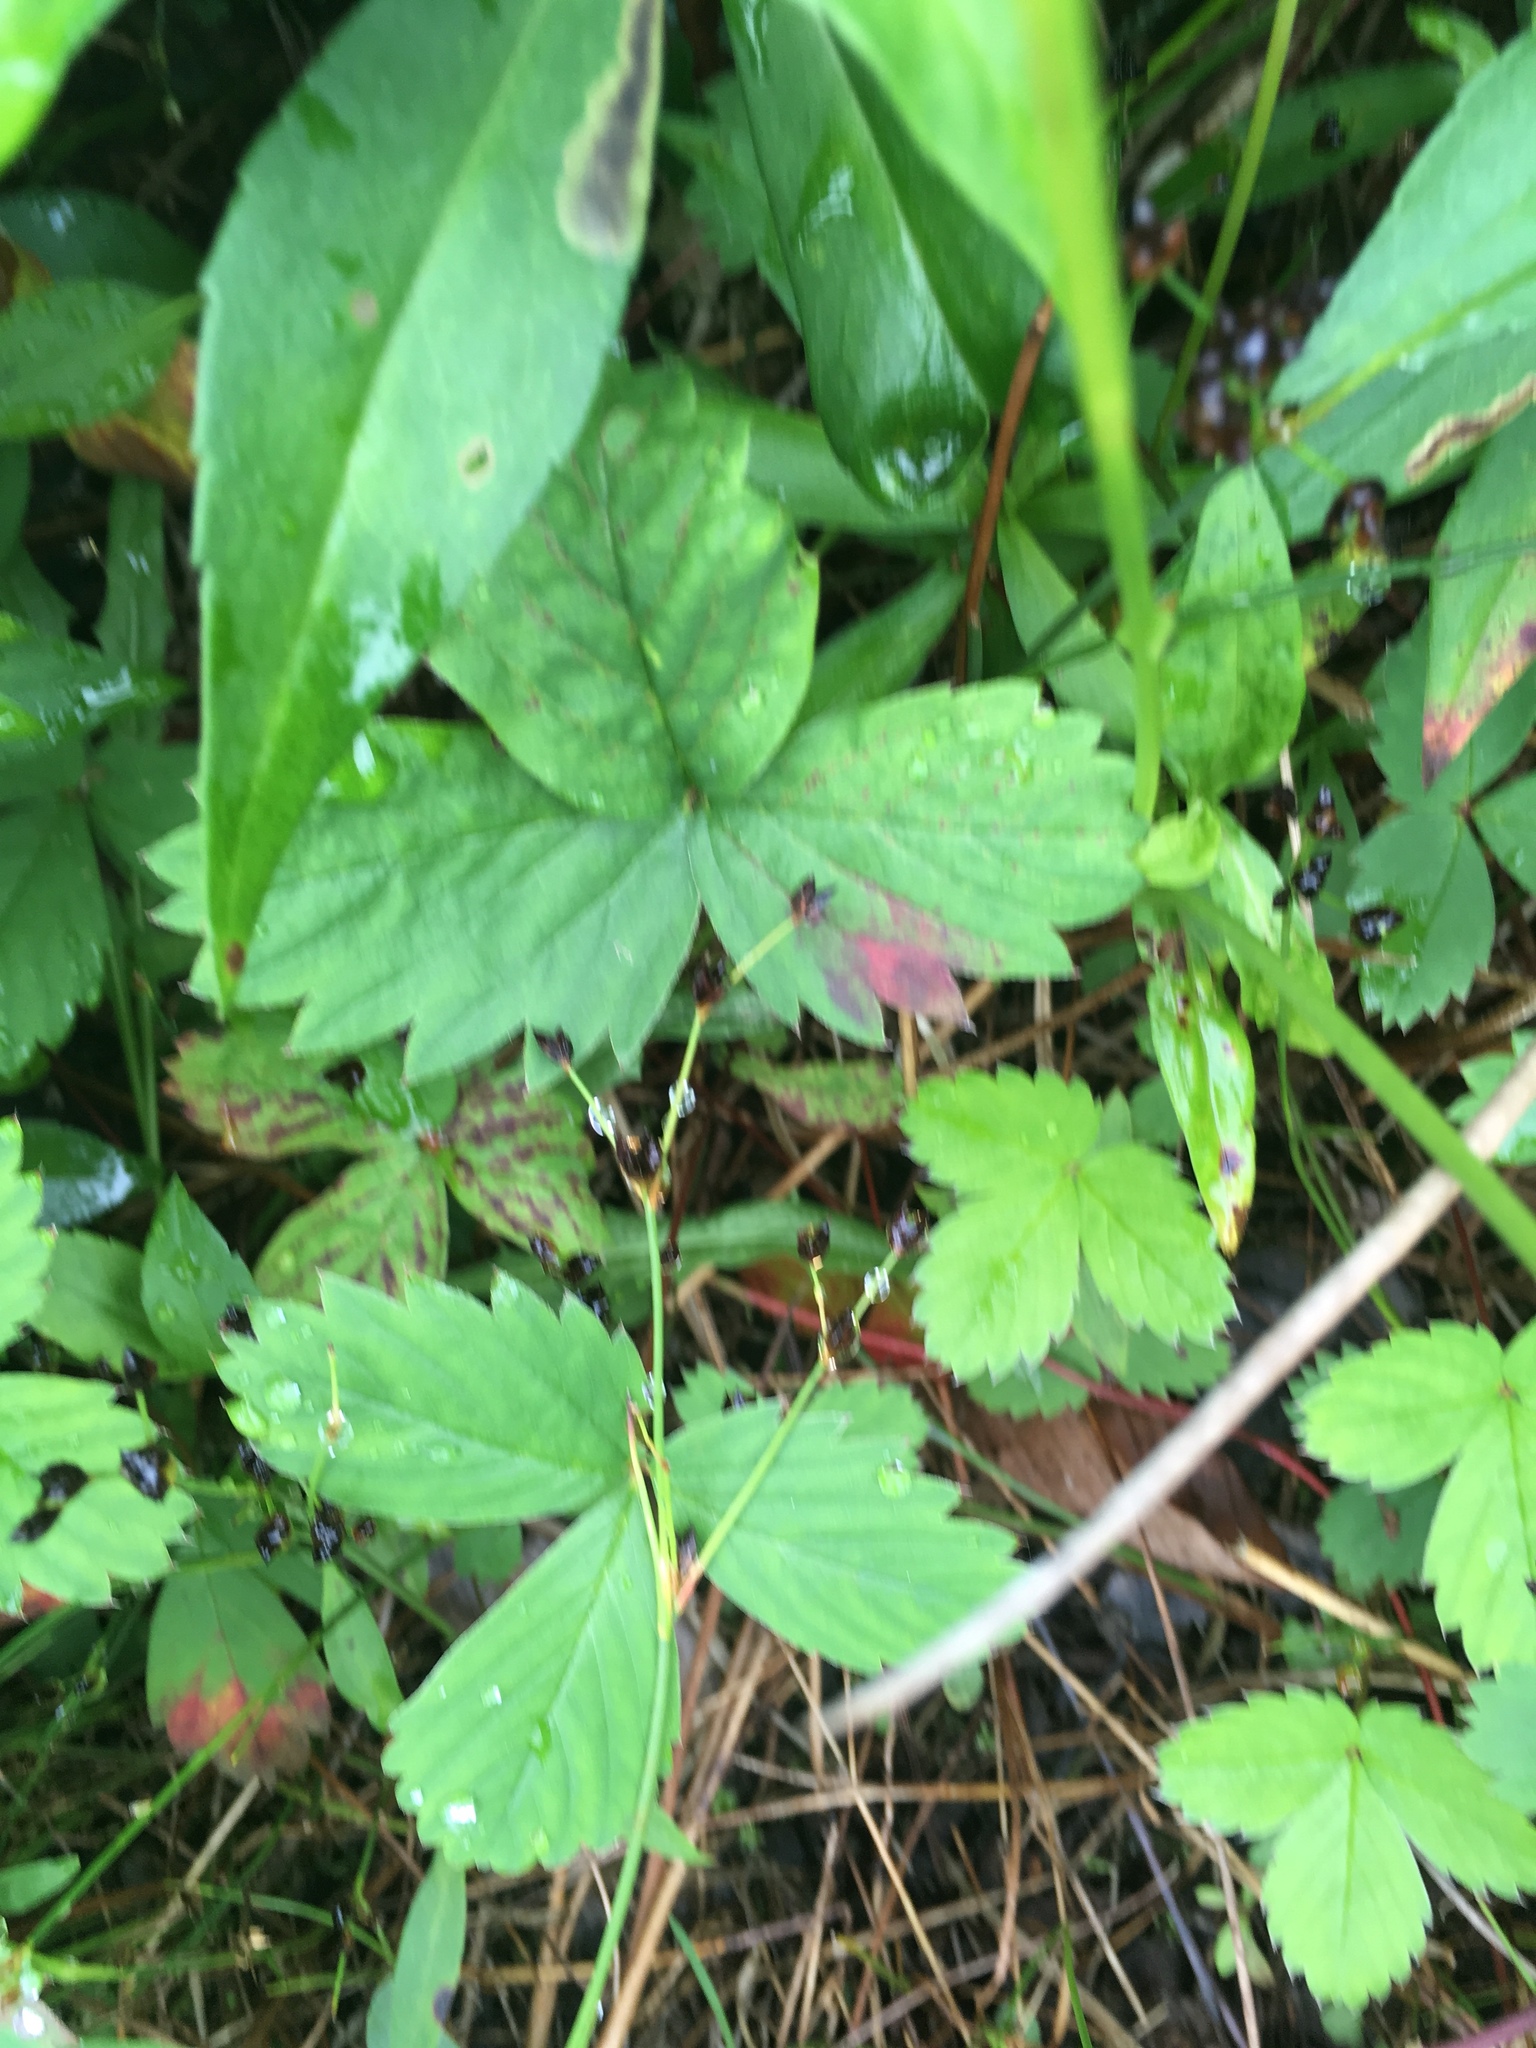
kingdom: Plantae
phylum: Tracheophyta
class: Magnoliopsida
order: Rosales
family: Rosaceae
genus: Fragaria
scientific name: Fragaria virginiana
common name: Thickleaved wild strawberry
